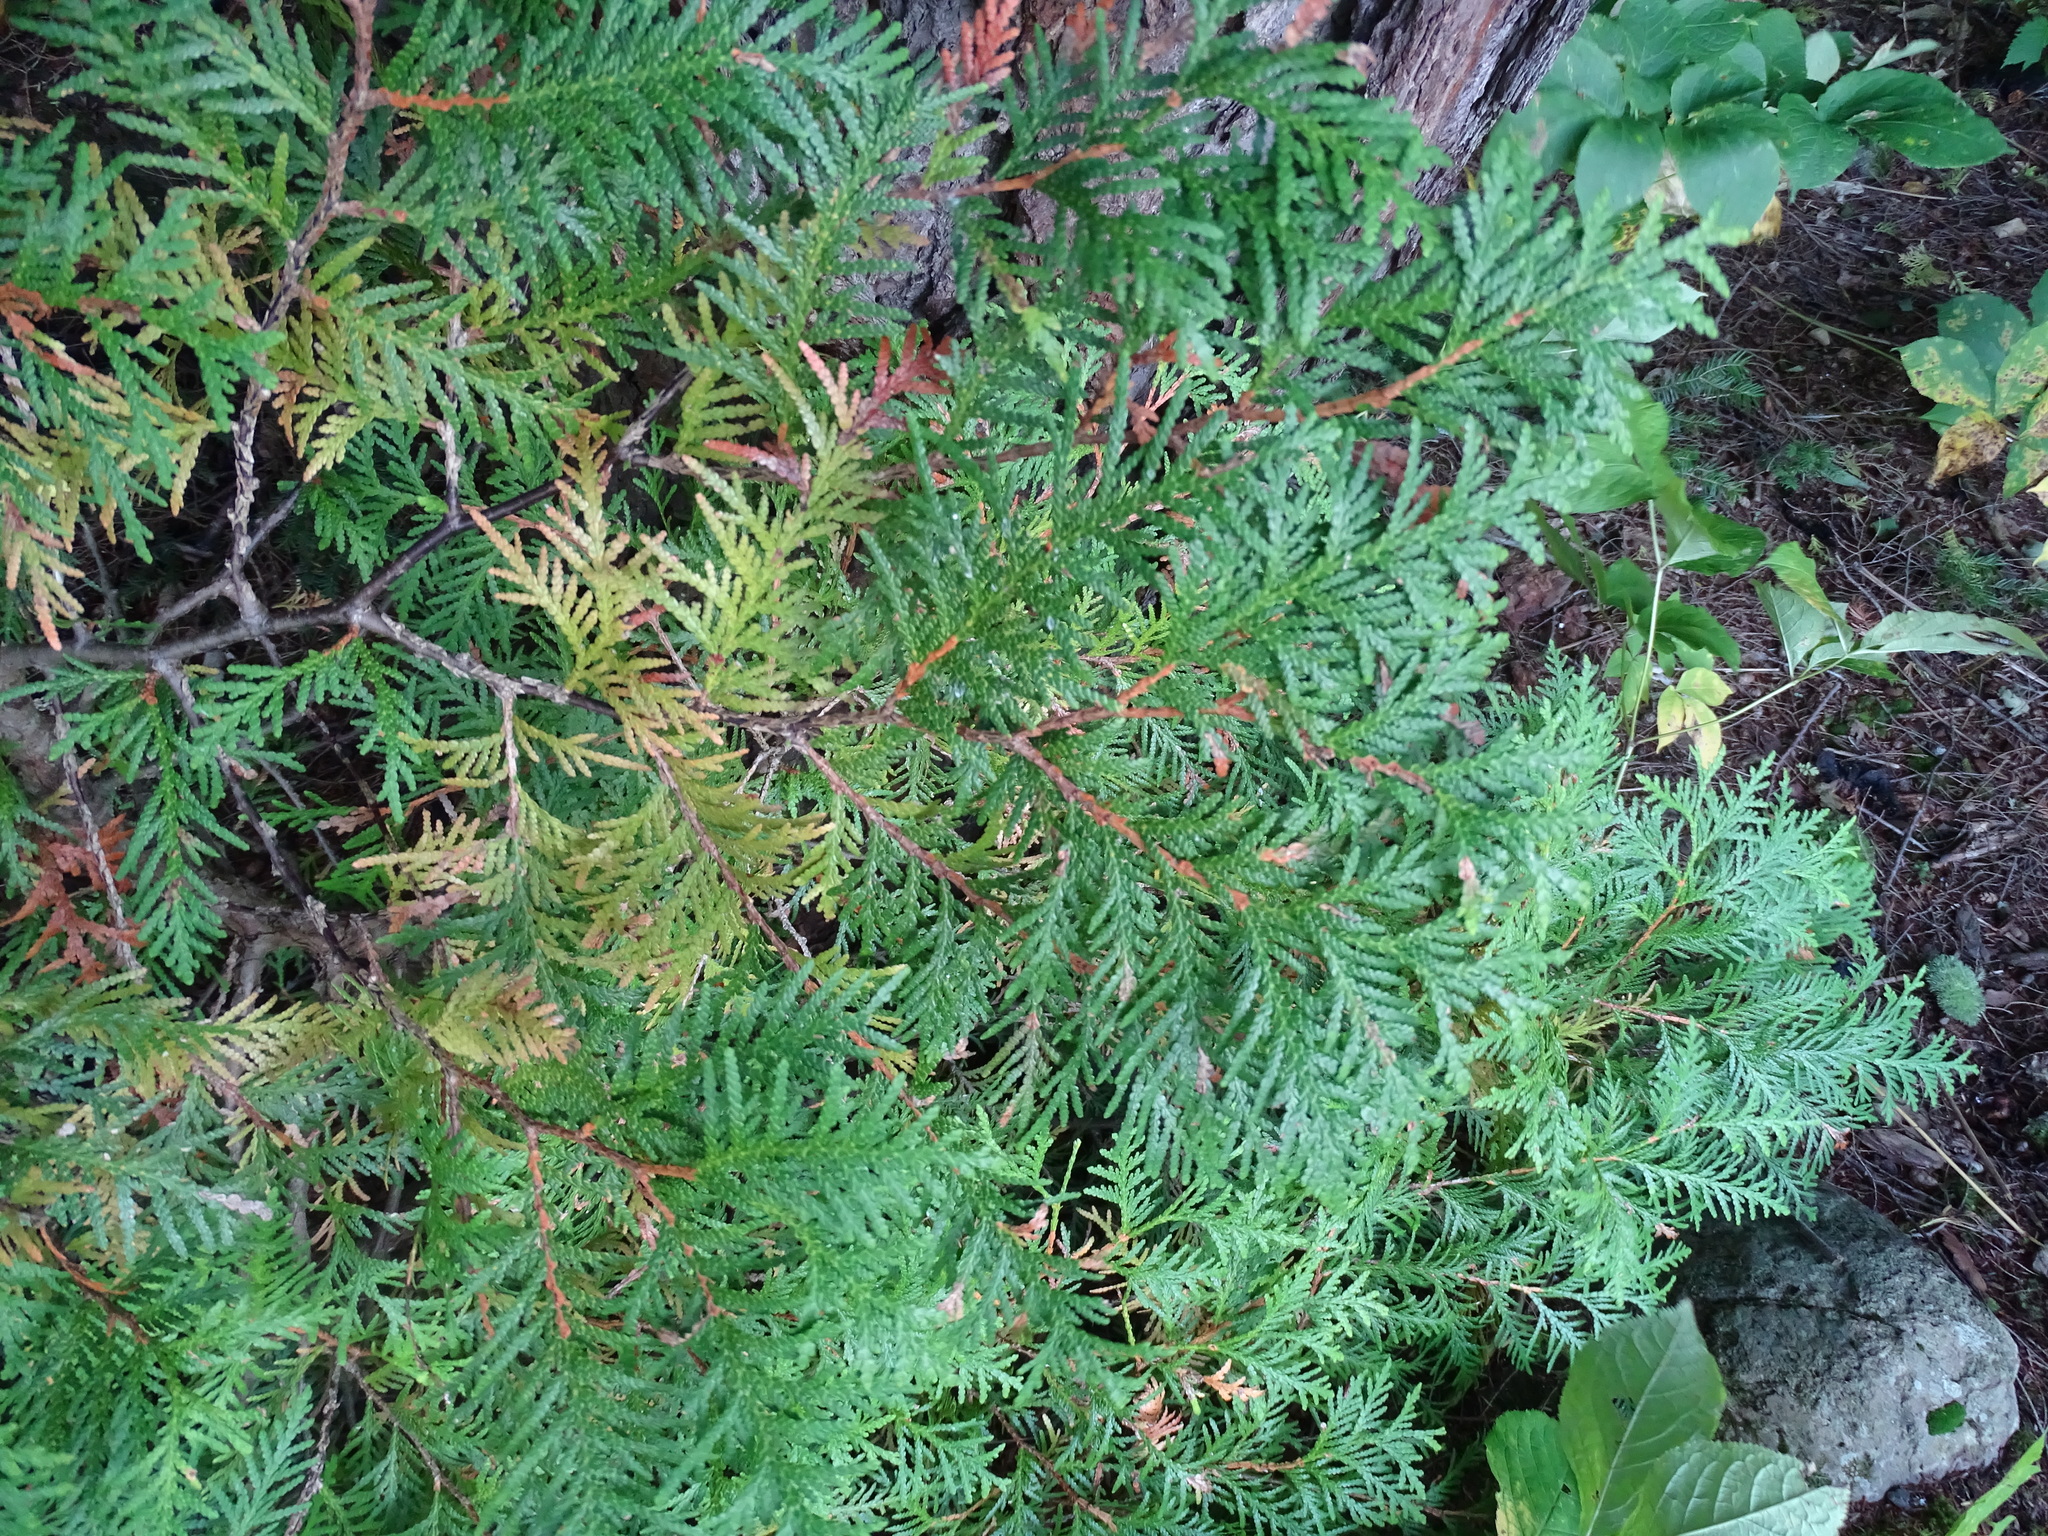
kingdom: Plantae
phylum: Tracheophyta
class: Pinopsida
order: Pinales
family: Cupressaceae
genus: Thuja
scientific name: Thuja occidentalis
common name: Northern white-cedar
